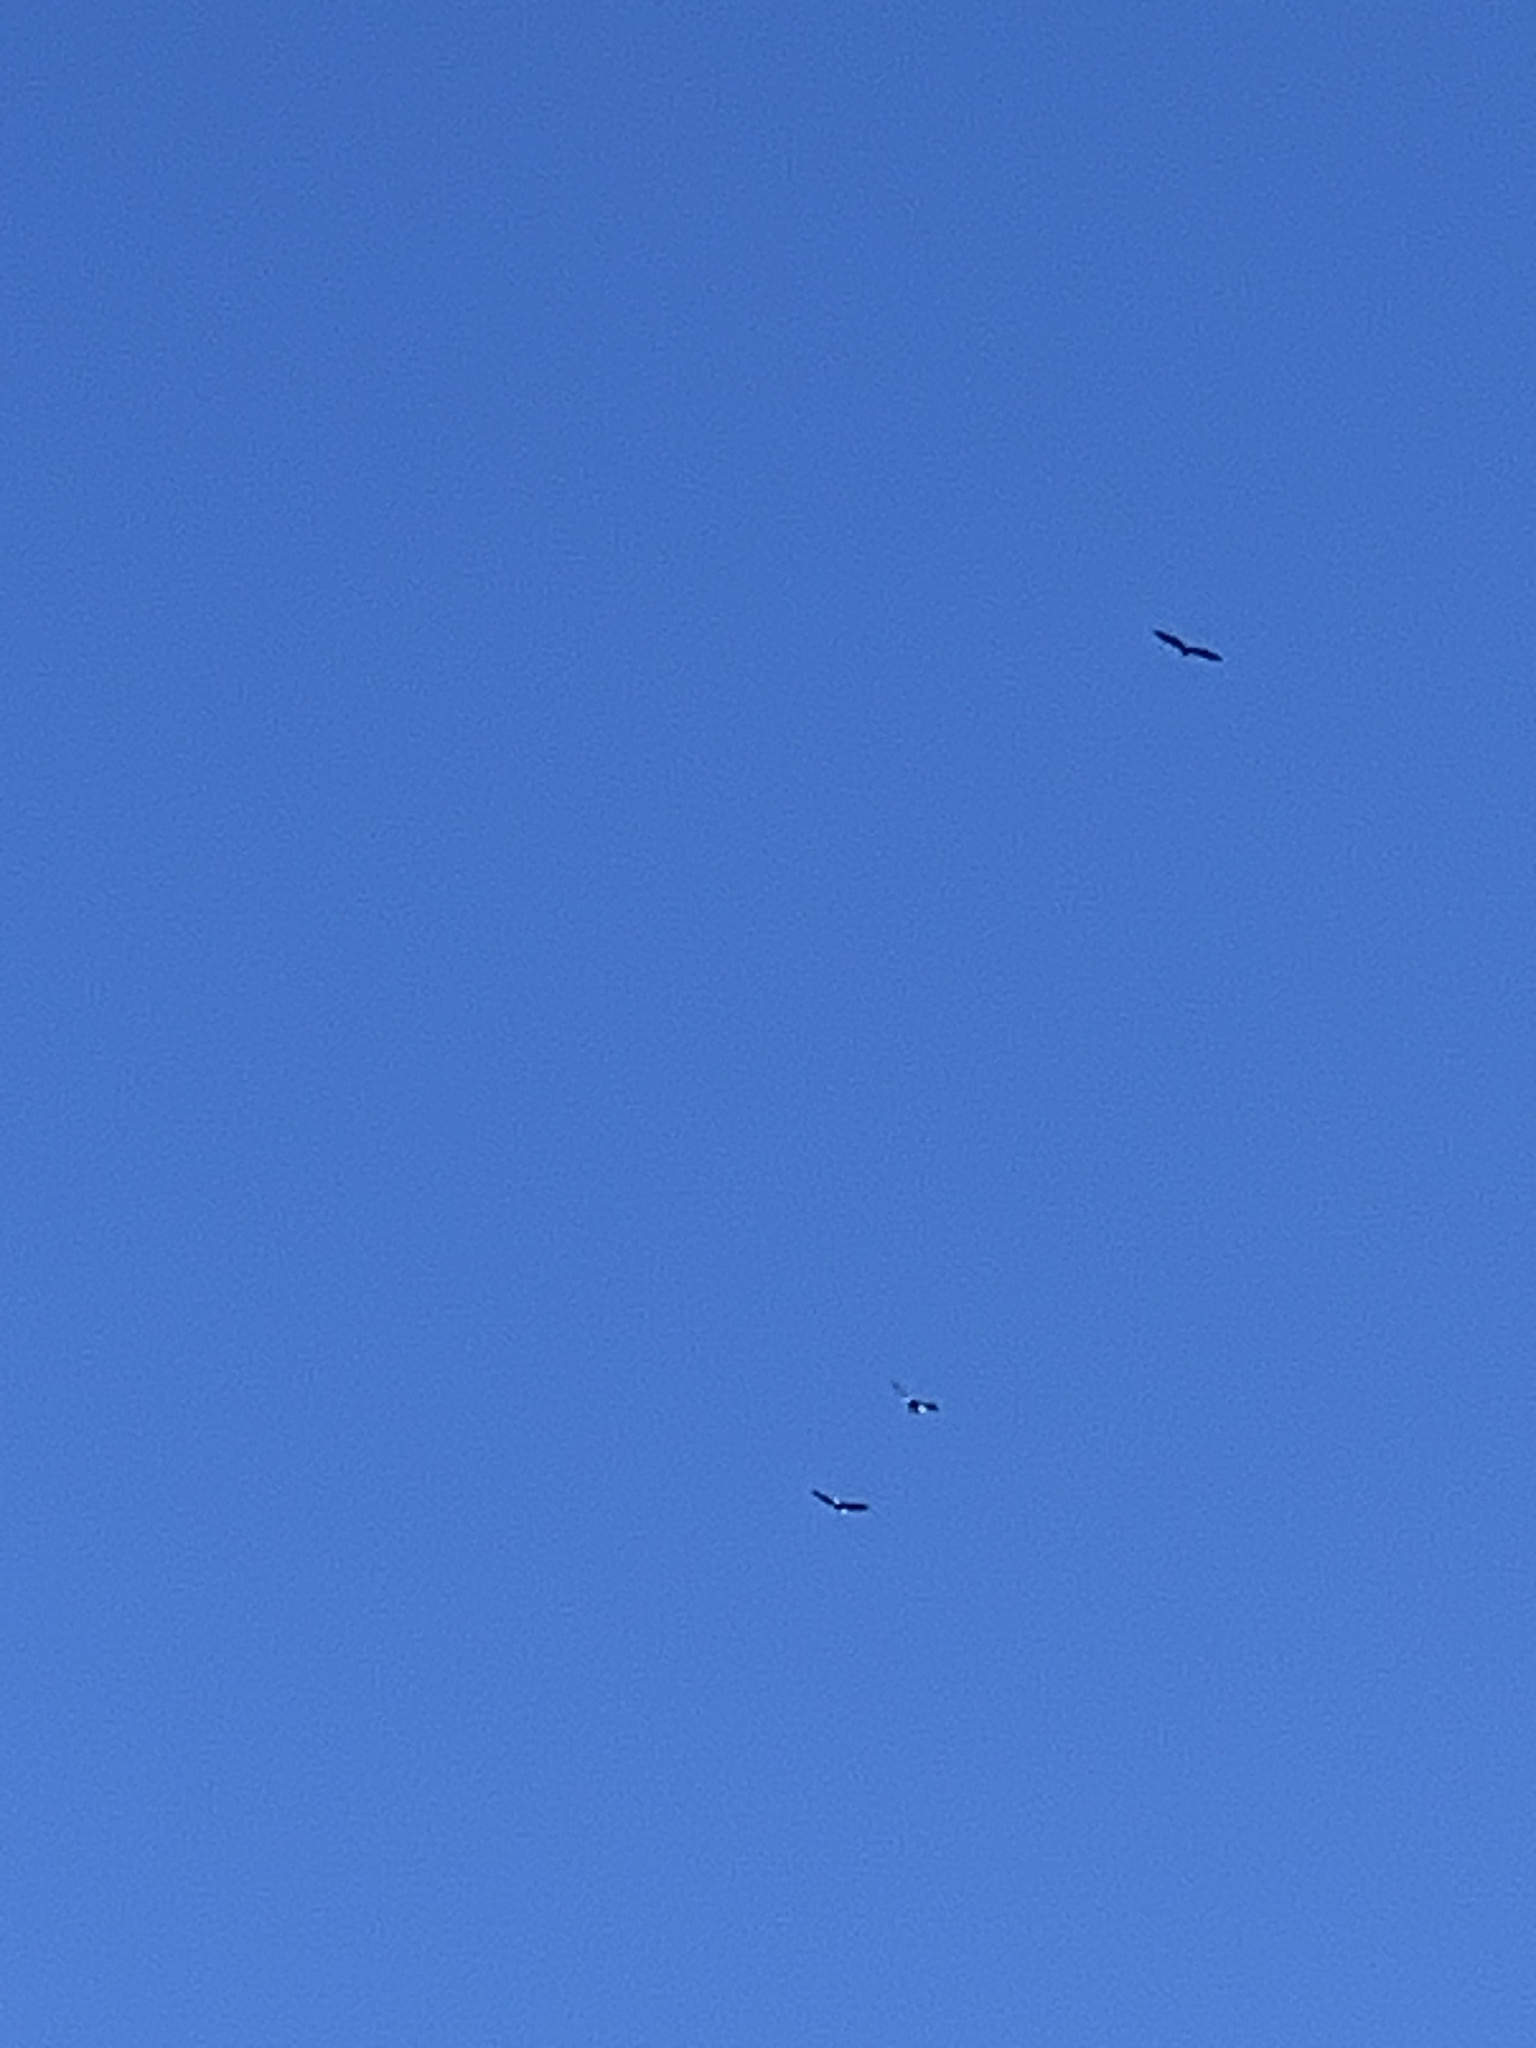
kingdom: Animalia
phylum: Chordata
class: Aves
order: Accipitriformes
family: Accipitridae
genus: Haliaeetus
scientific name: Haliaeetus leucocephalus
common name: Bald eagle
